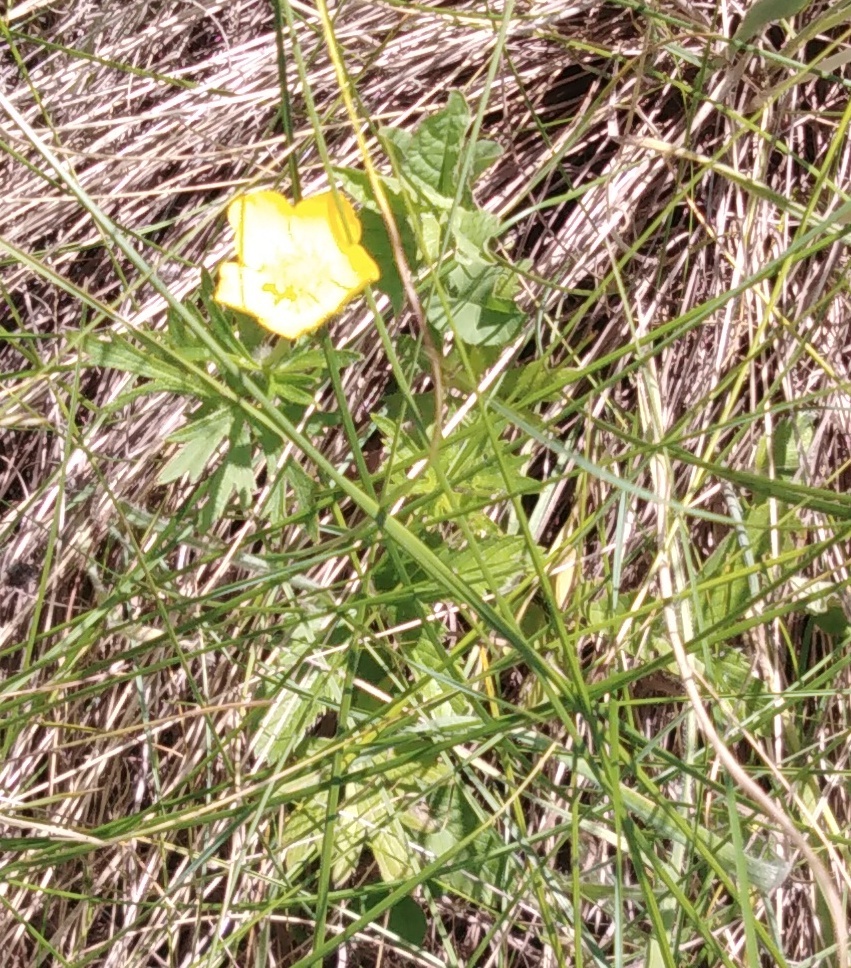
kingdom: Plantae
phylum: Tracheophyta
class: Magnoliopsida
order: Ranunculales
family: Ranunculaceae
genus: Ranunculus
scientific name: Ranunculus polyanthemos
